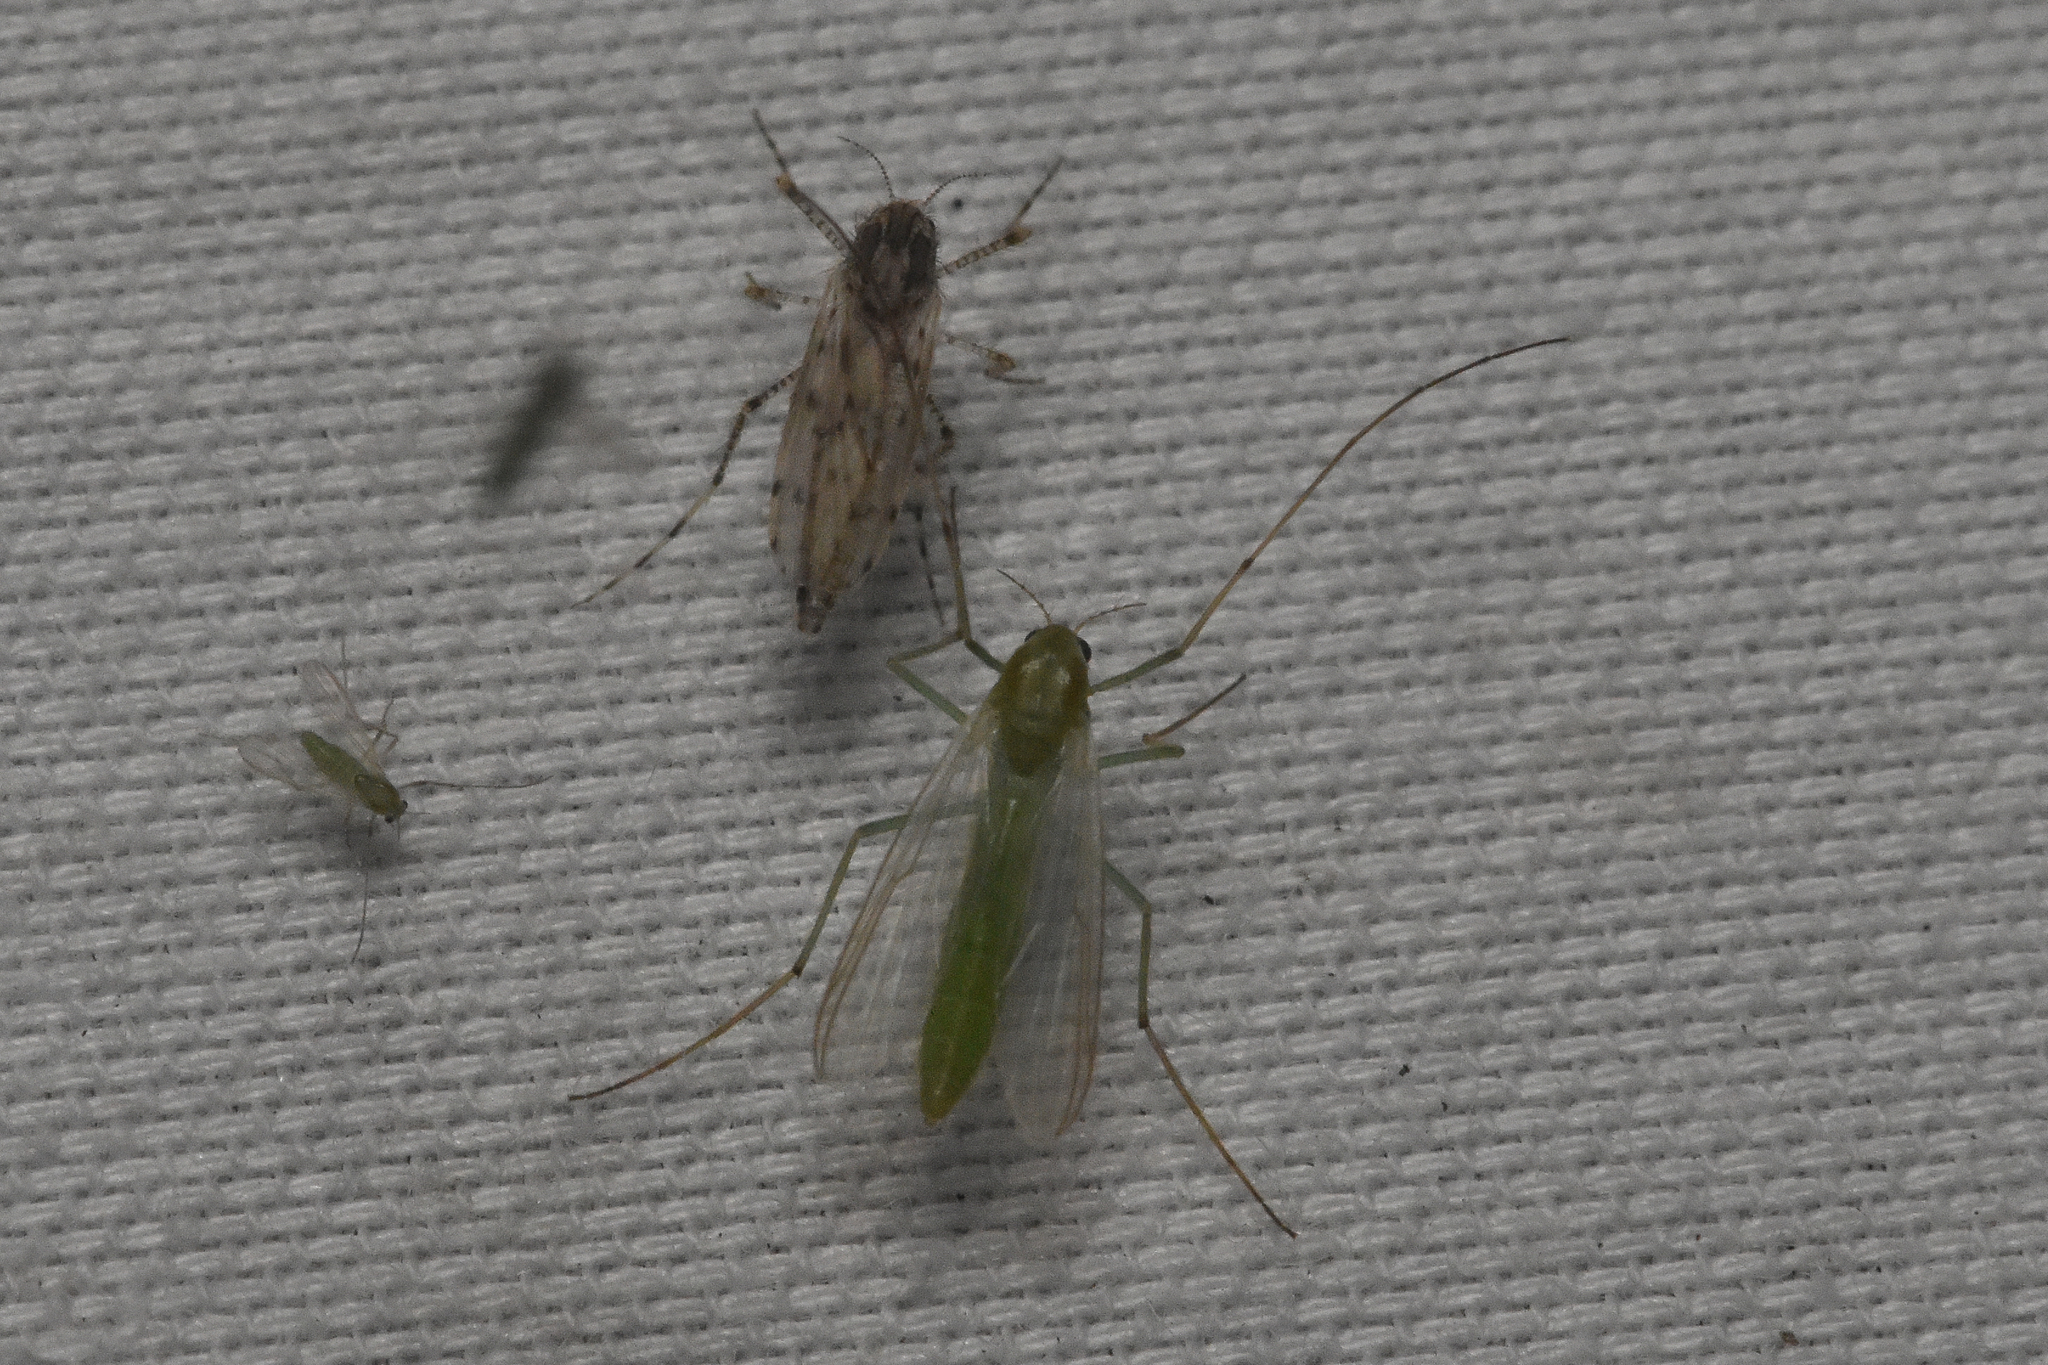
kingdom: Animalia
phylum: Arthropoda
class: Insecta
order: Diptera
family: Chaoboridae
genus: Chaoborus
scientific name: Chaoborus punctipennis
